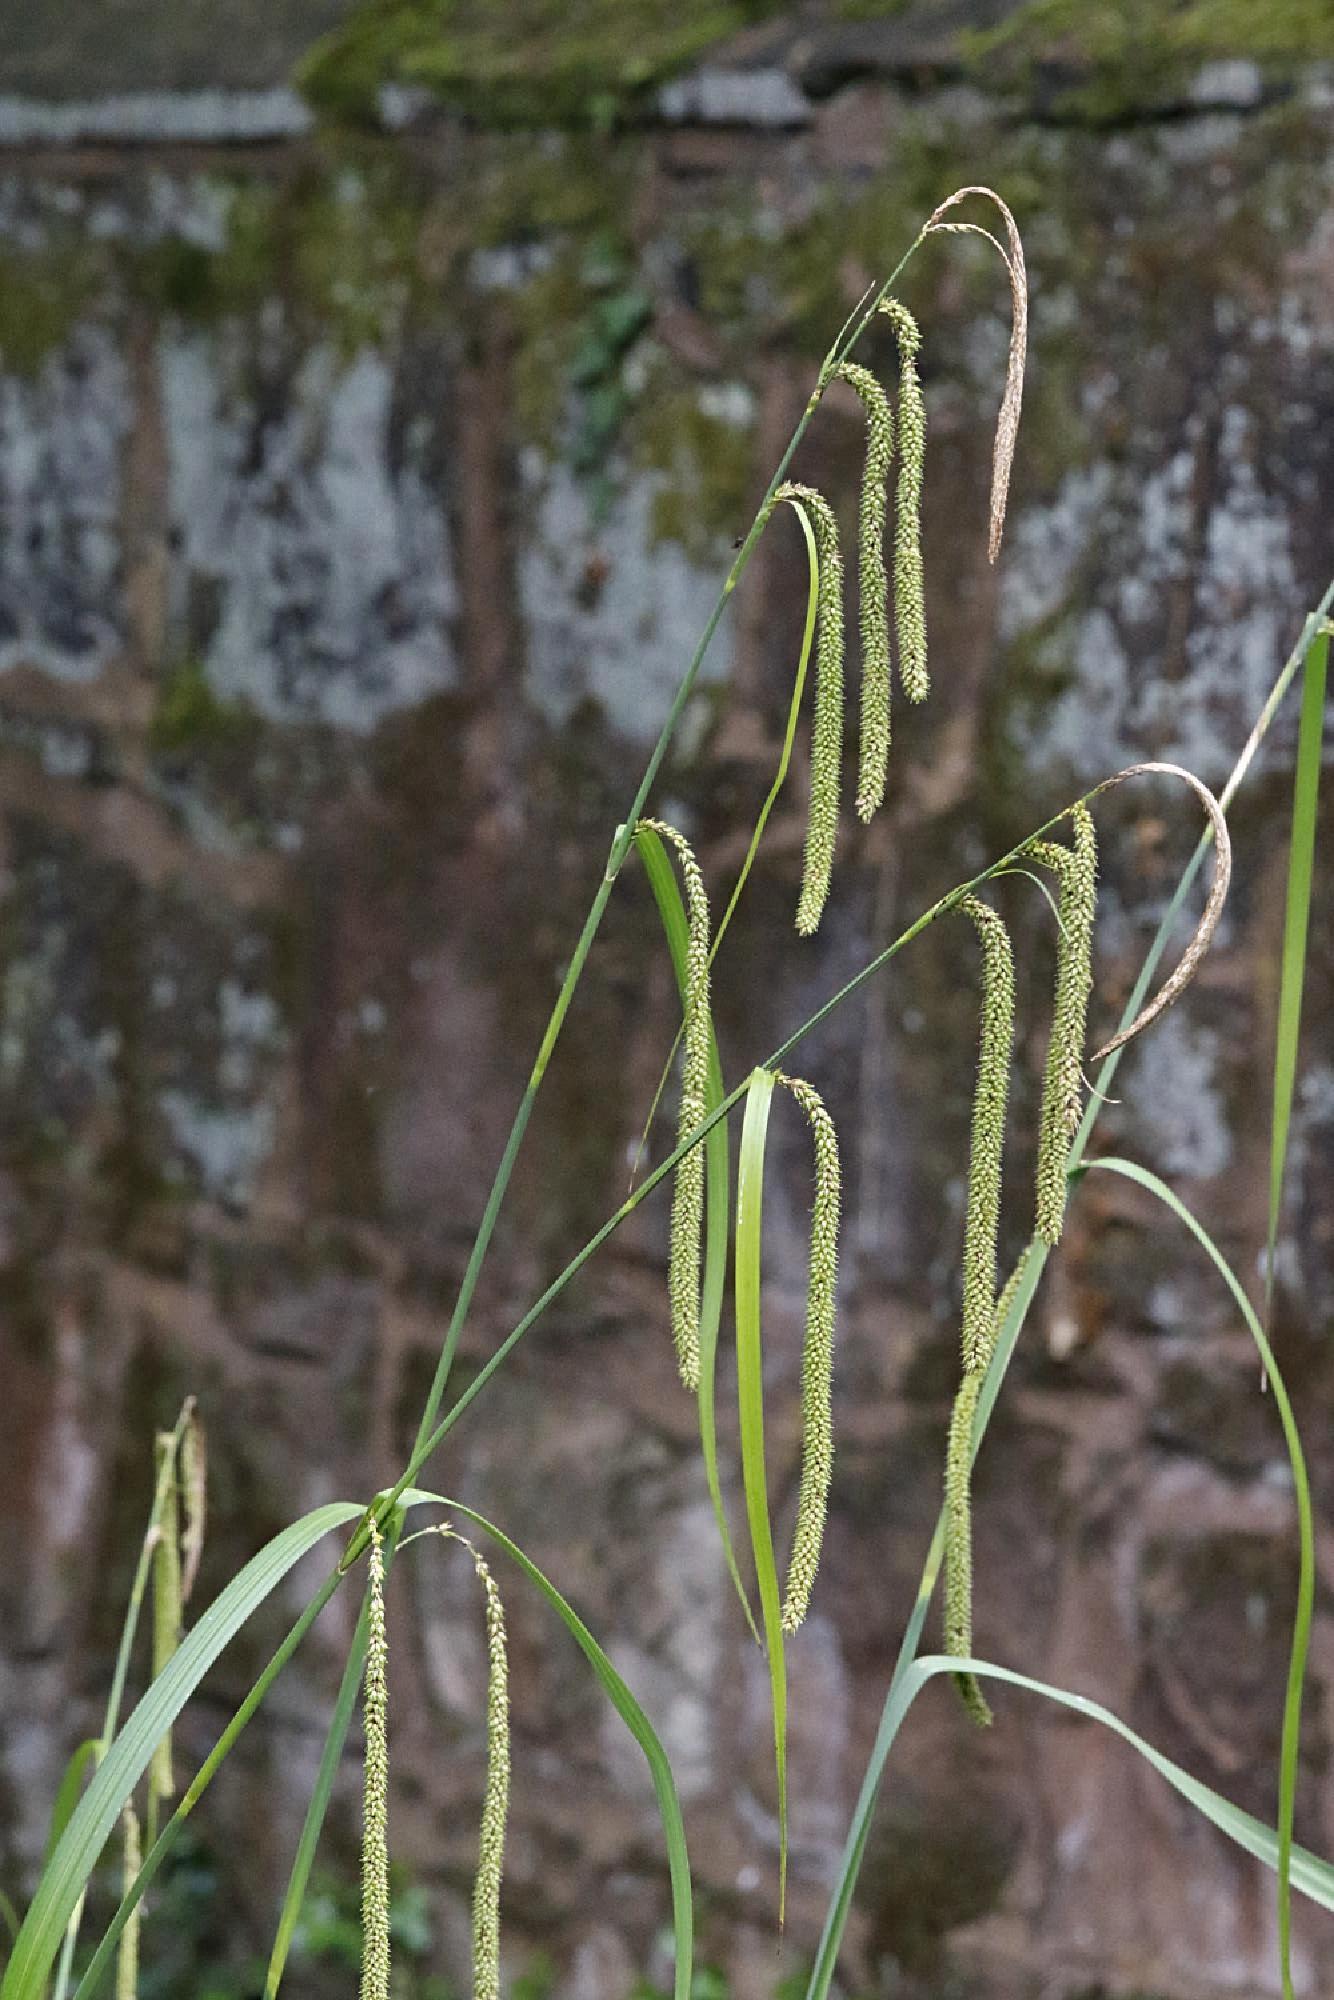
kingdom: Plantae
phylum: Tracheophyta
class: Liliopsida
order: Poales
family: Cyperaceae
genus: Carex
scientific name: Carex pendula
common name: Pendulous sedge
